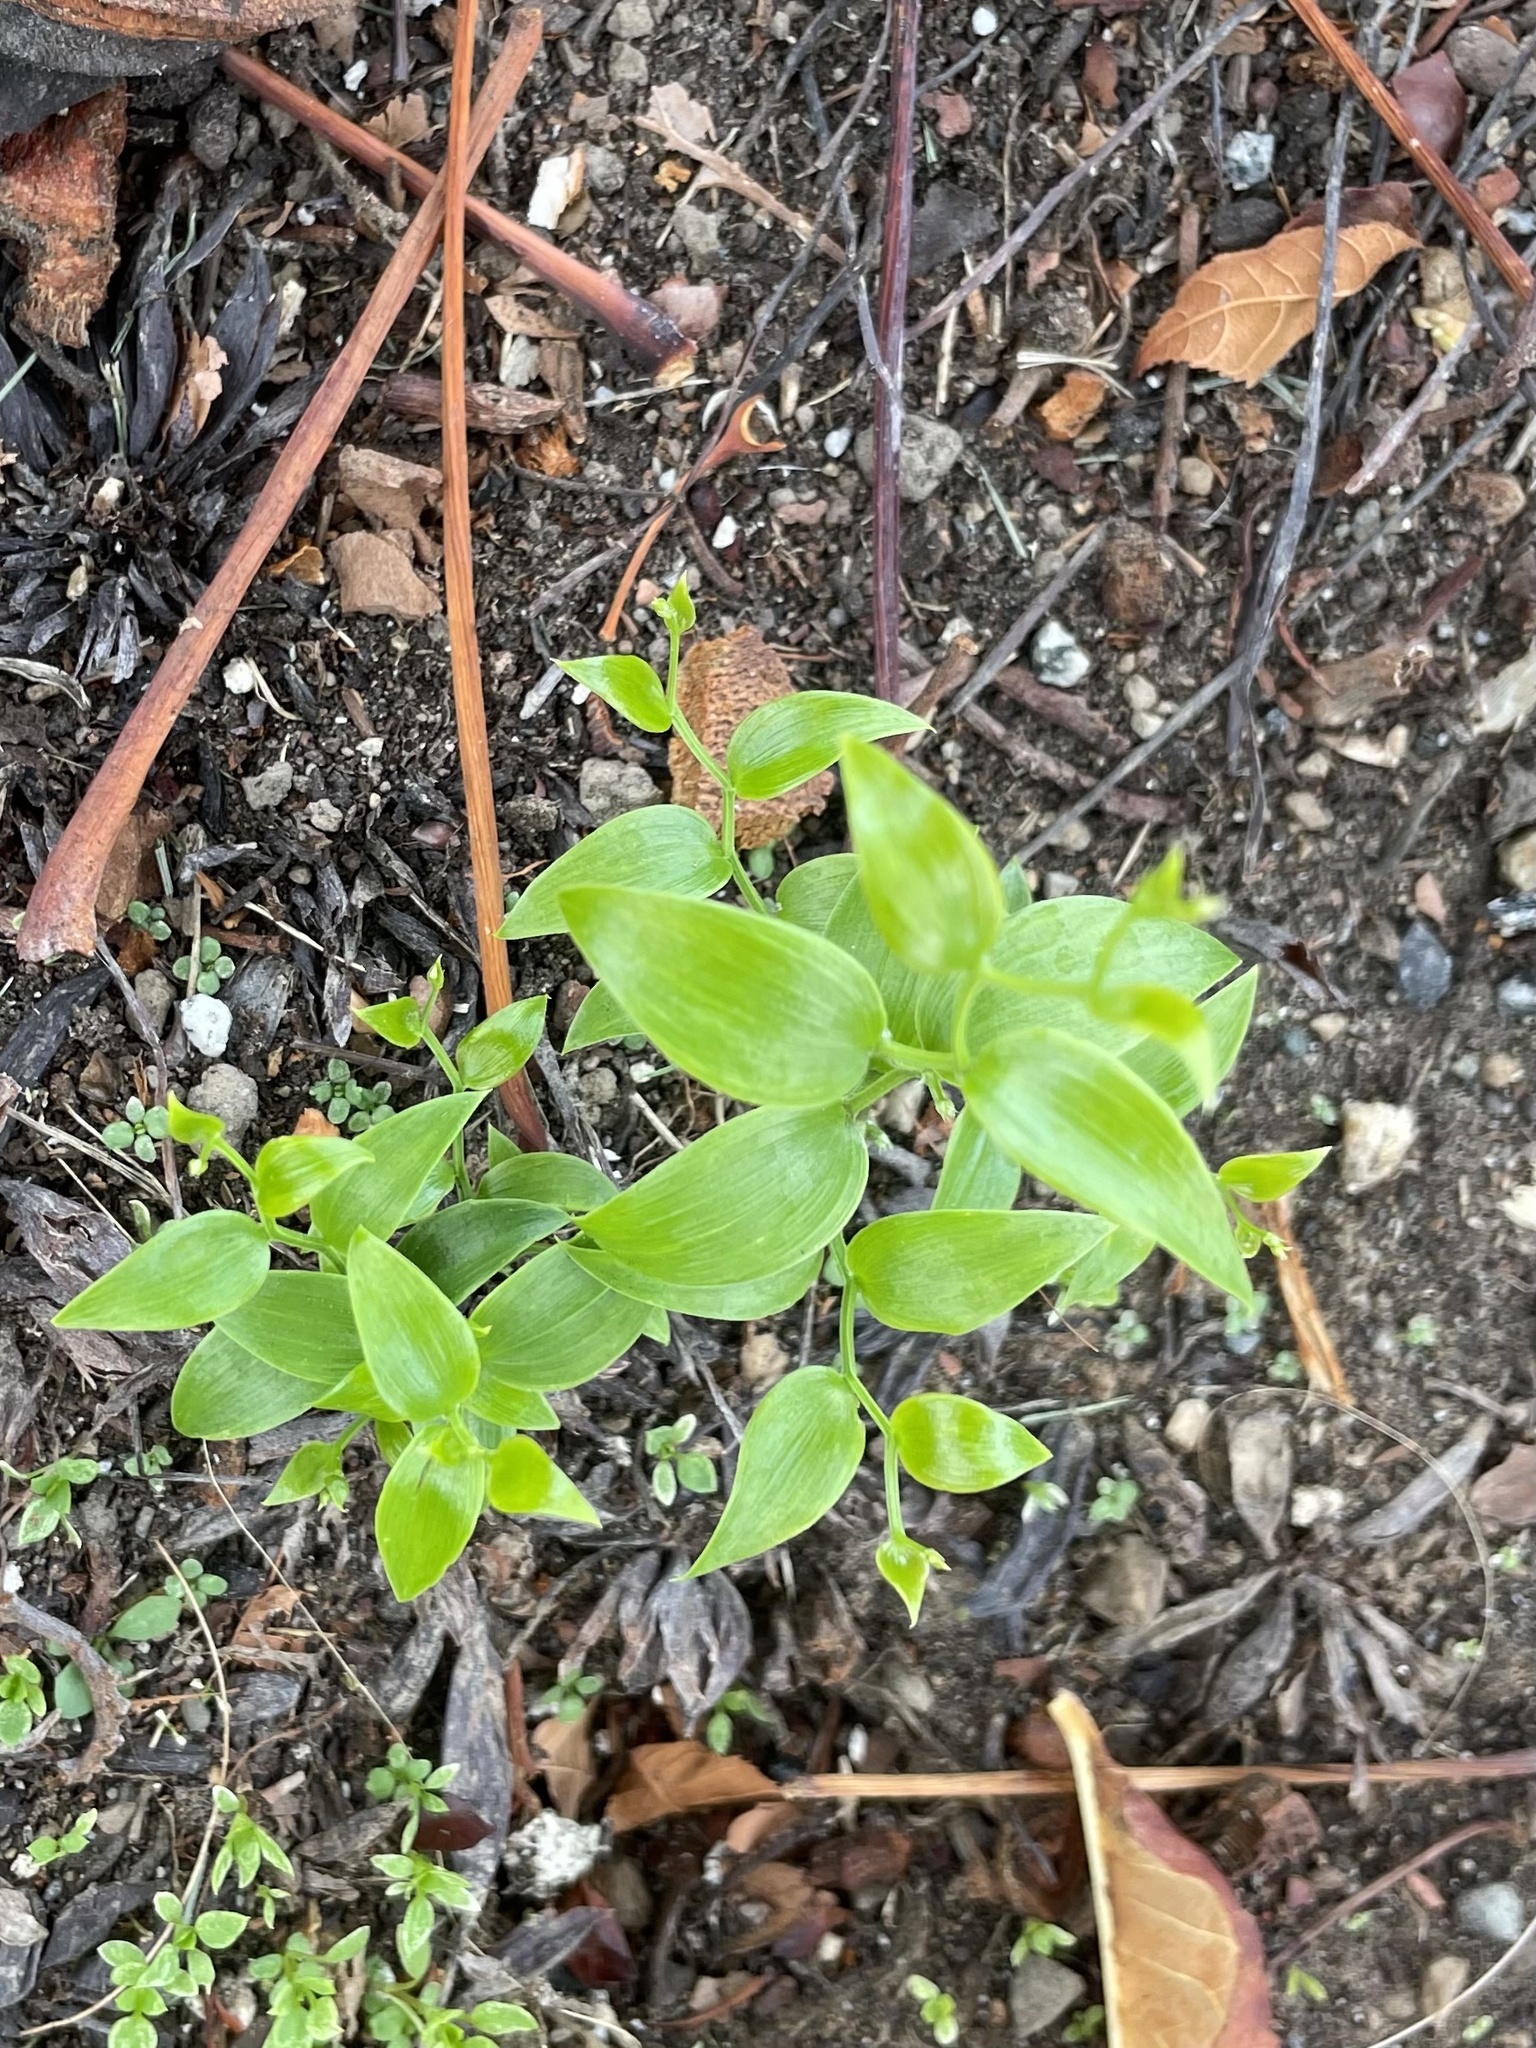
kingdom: Plantae
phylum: Tracheophyta
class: Liliopsida
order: Asparagales
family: Asparagaceae
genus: Asparagus
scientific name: Asparagus asparagoides
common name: African asparagus fern
